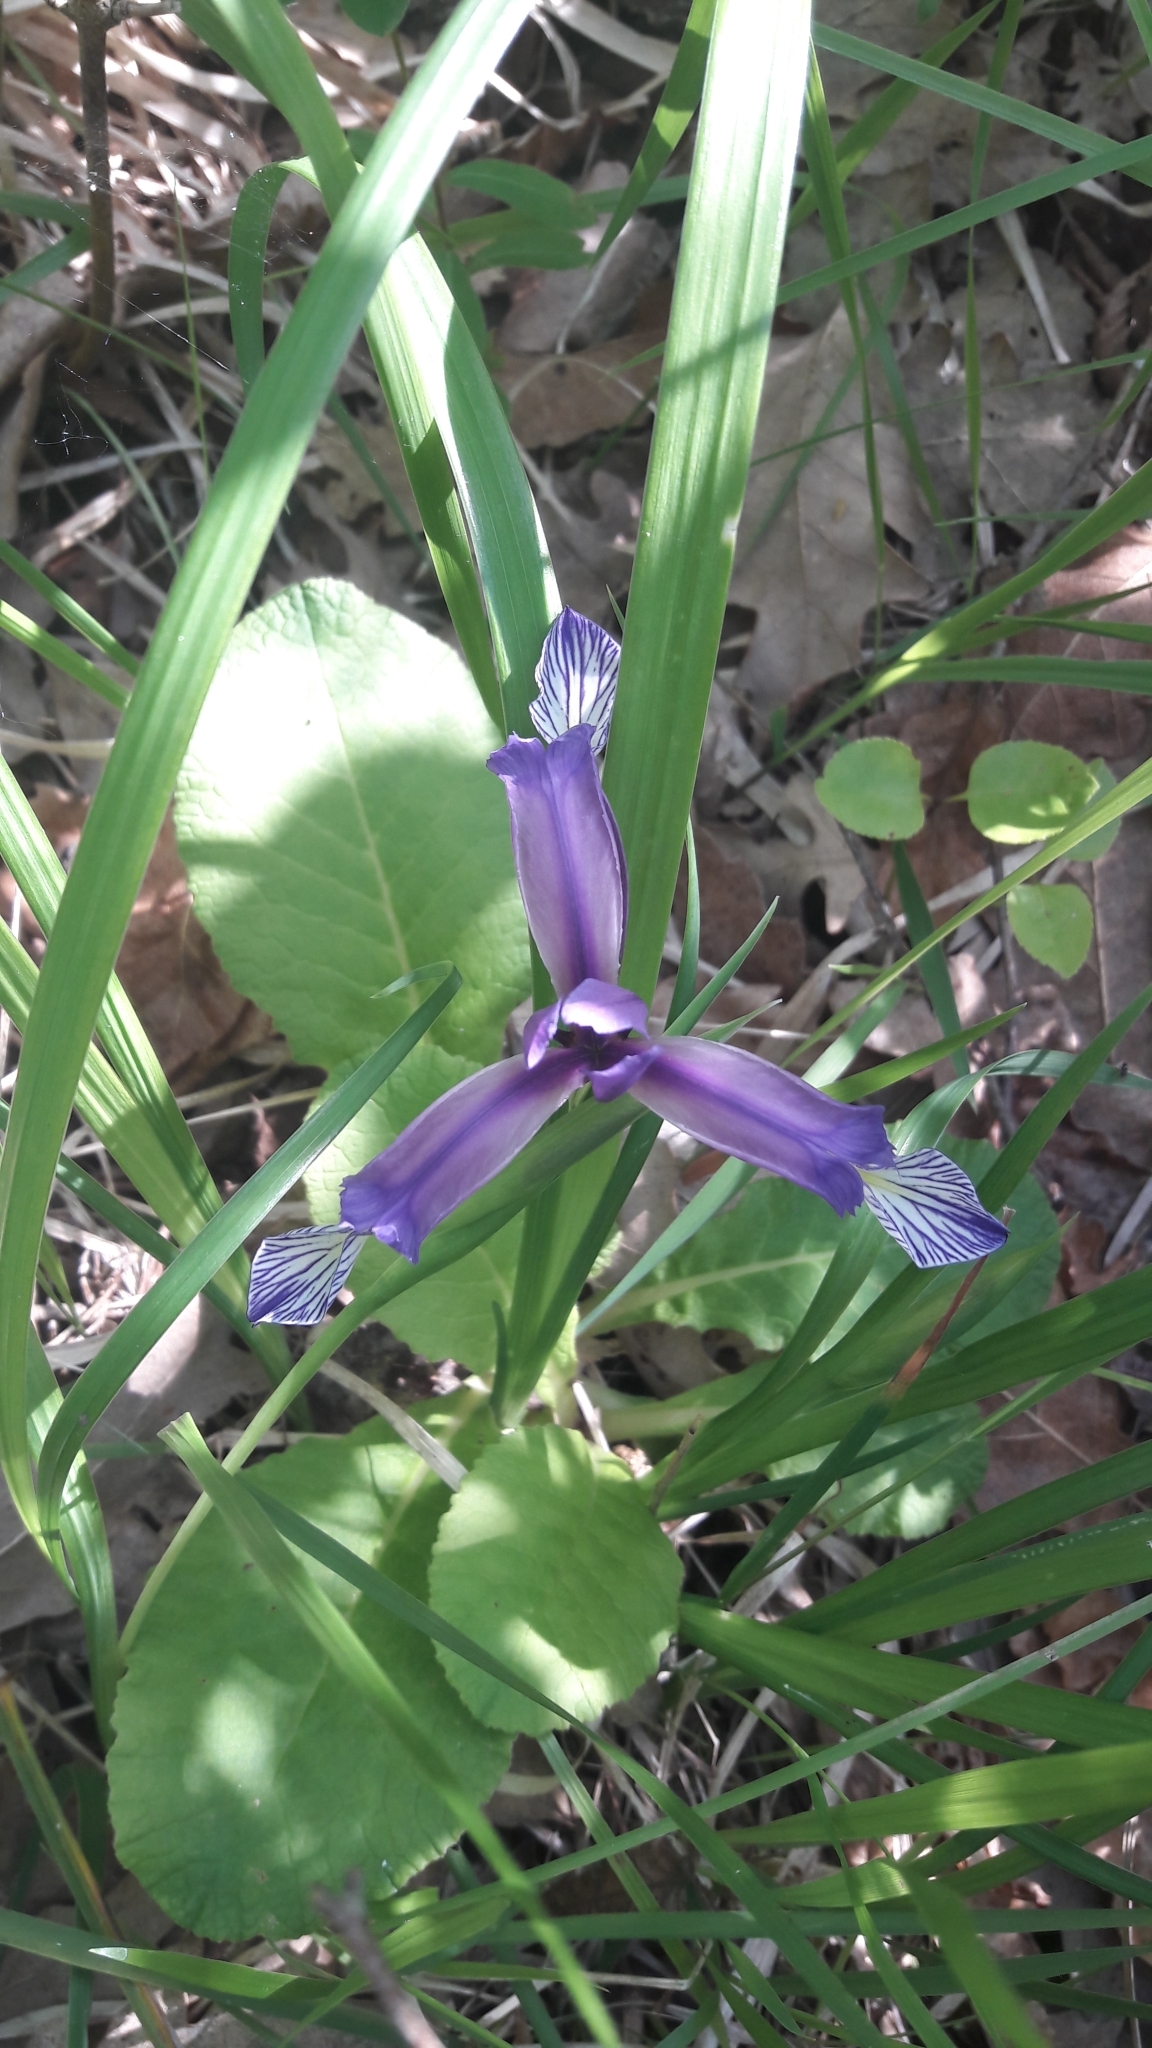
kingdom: Plantae
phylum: Tracheophyta
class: Liliopsida
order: Asparagales
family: Iridaceae
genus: Iris
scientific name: Iris graminea
